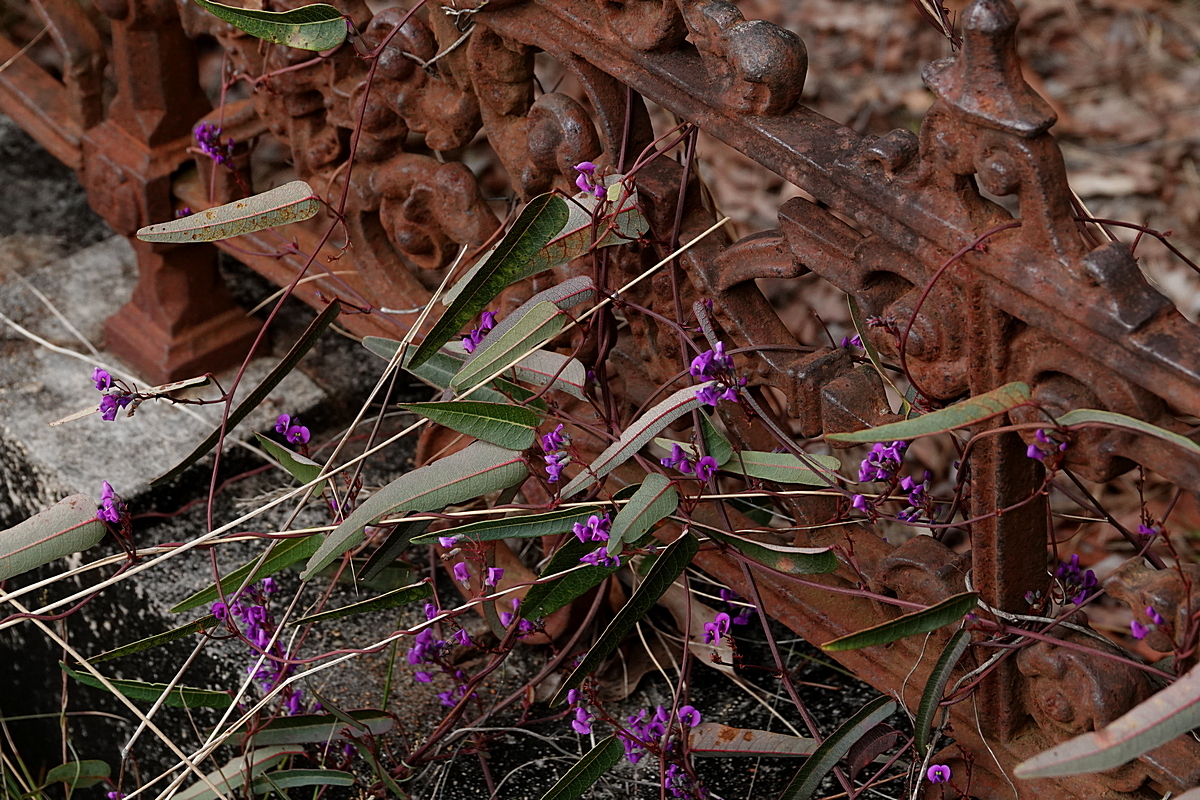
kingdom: Plantae
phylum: Tracheophyta
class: Magnoliopsida
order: Fabales
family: Fabaceae
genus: Hardenbergia
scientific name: Hardenbergia violacea
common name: Coral-pea
